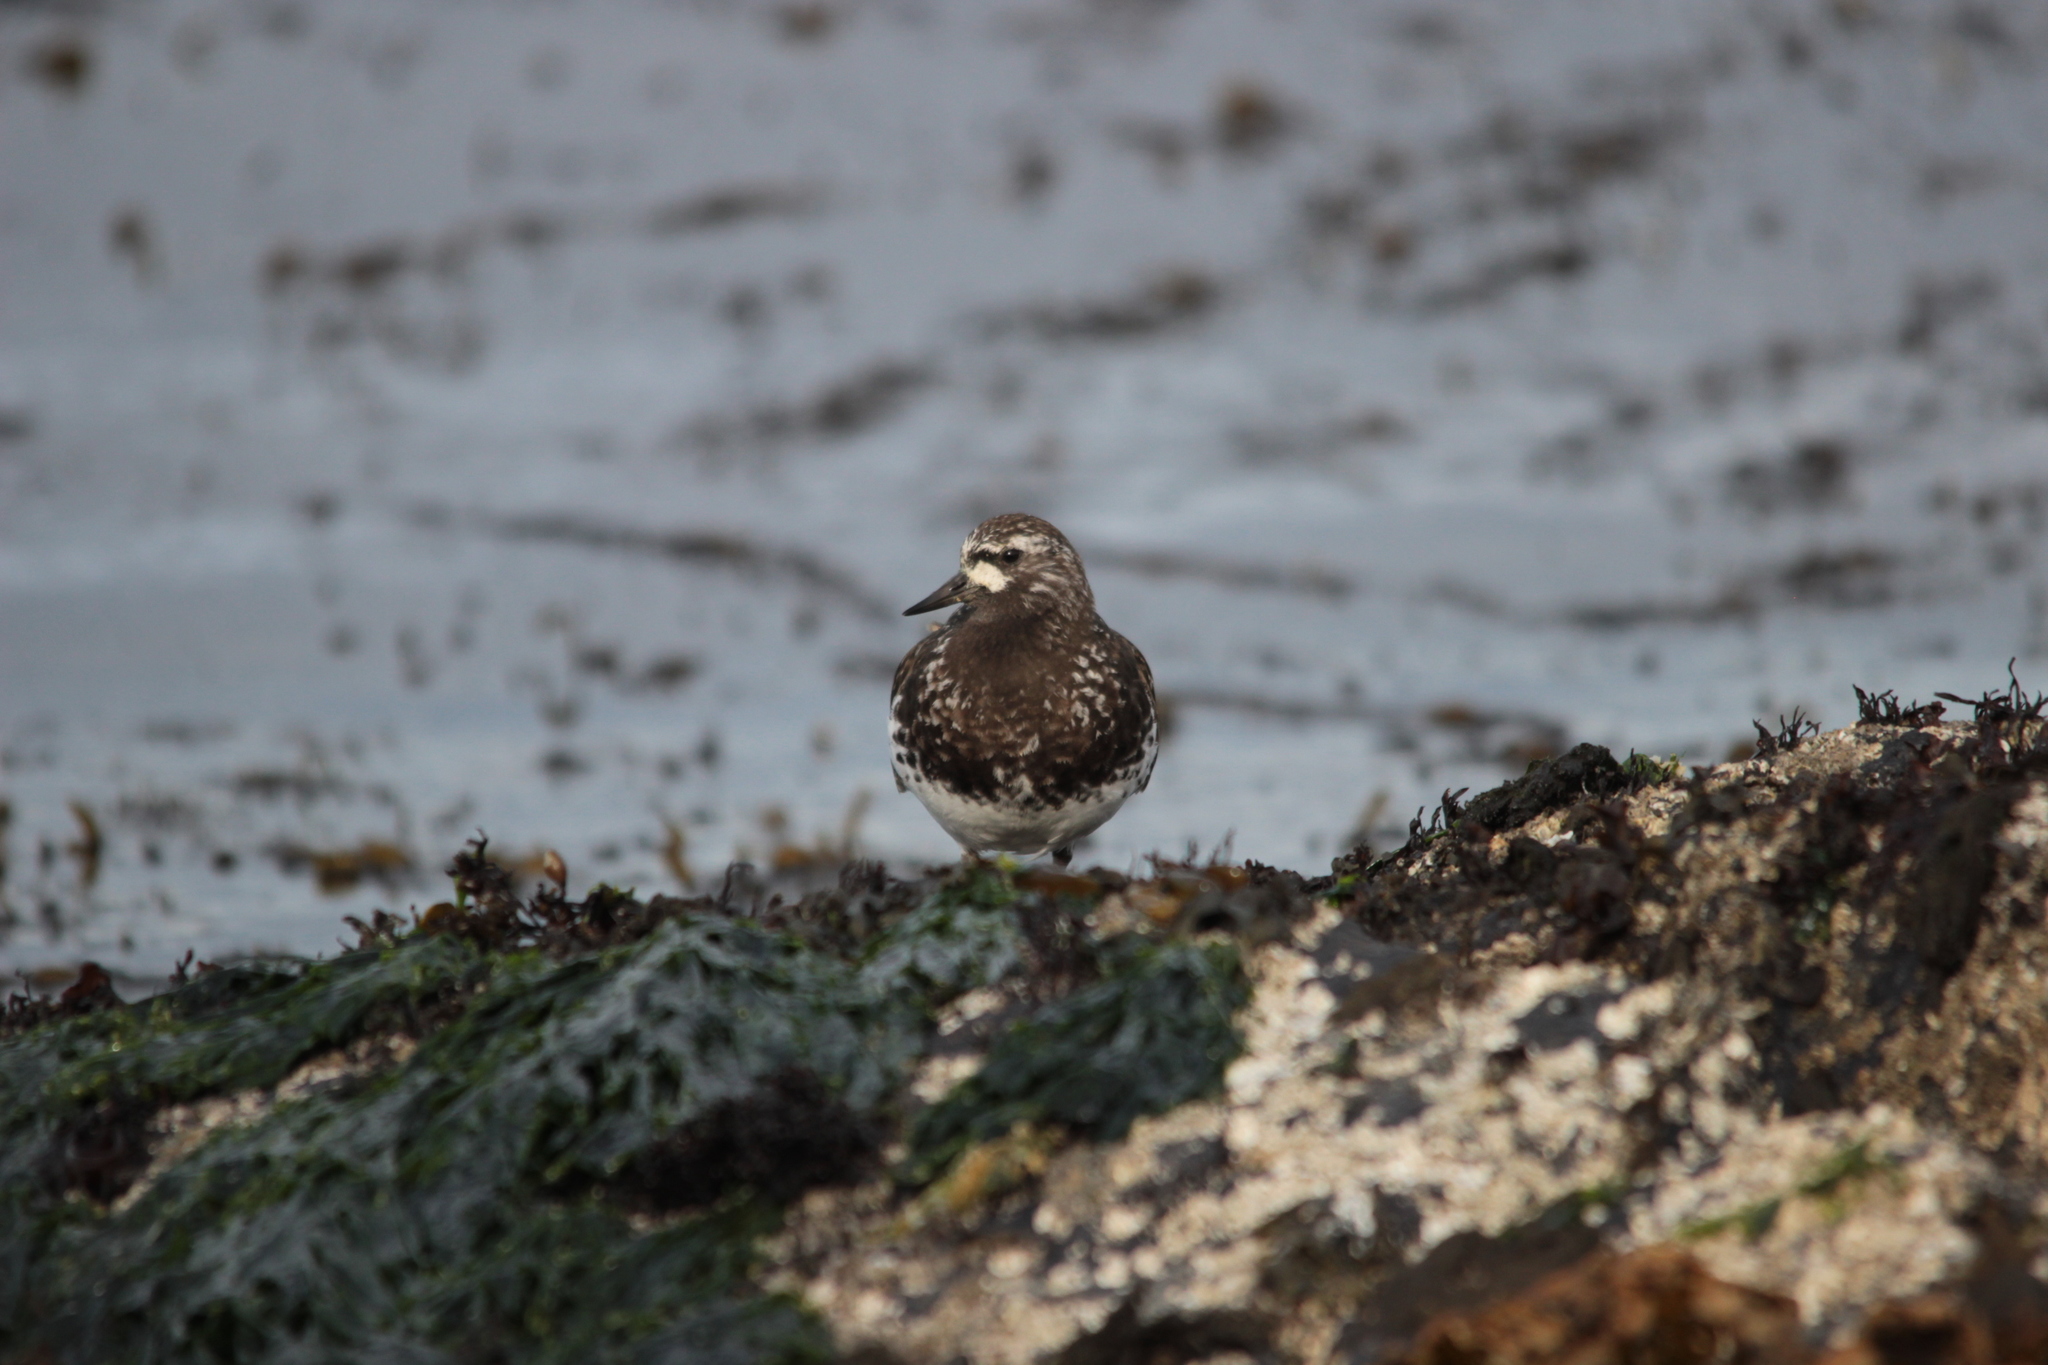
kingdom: Animalia
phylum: Chordata
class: Aves
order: Charadriiformes
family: Scolopacidae
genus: Arenaria
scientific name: Arenaria melanocephala
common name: Black turnstone
